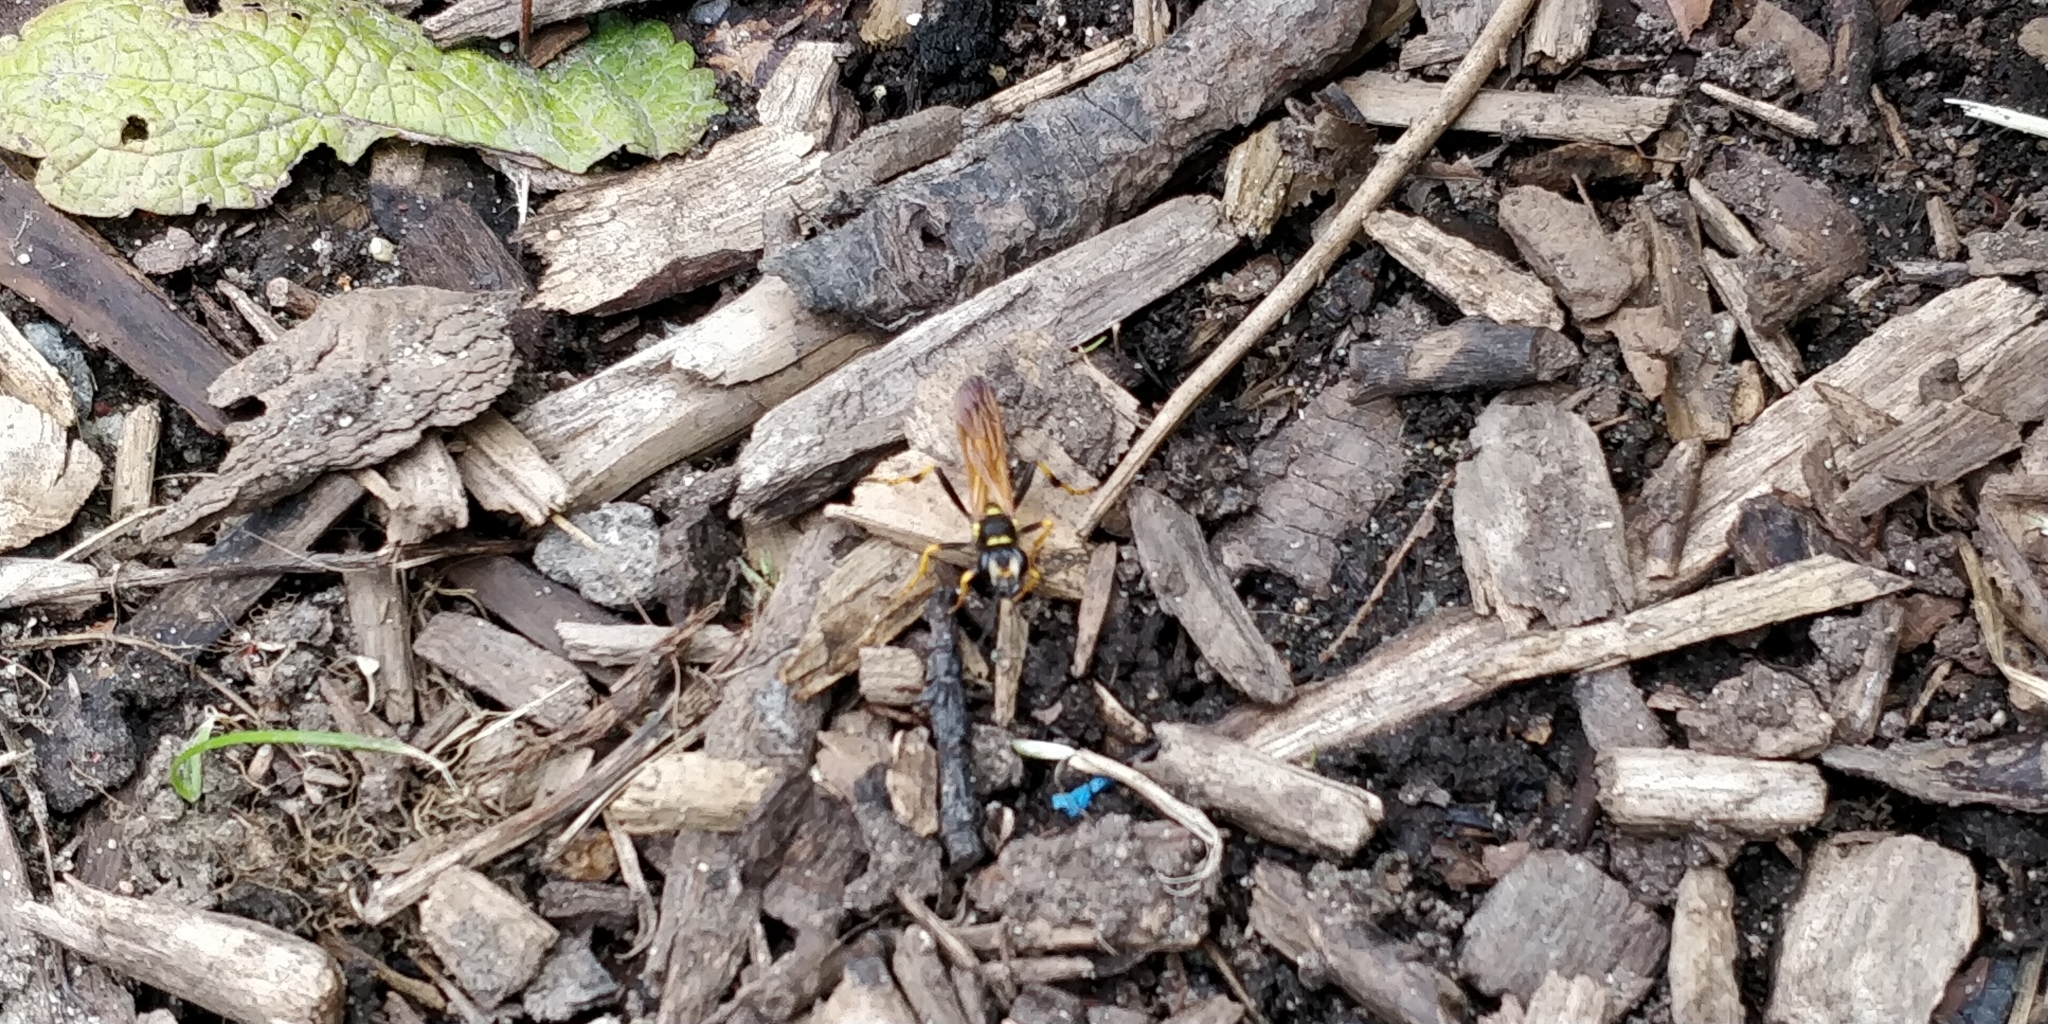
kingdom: Animalia
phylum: Arthropoda
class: Insecta
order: Hymenoptera
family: Sphecidae
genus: Sceliphron
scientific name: Sceliphron caementarium
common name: Mud dauber
